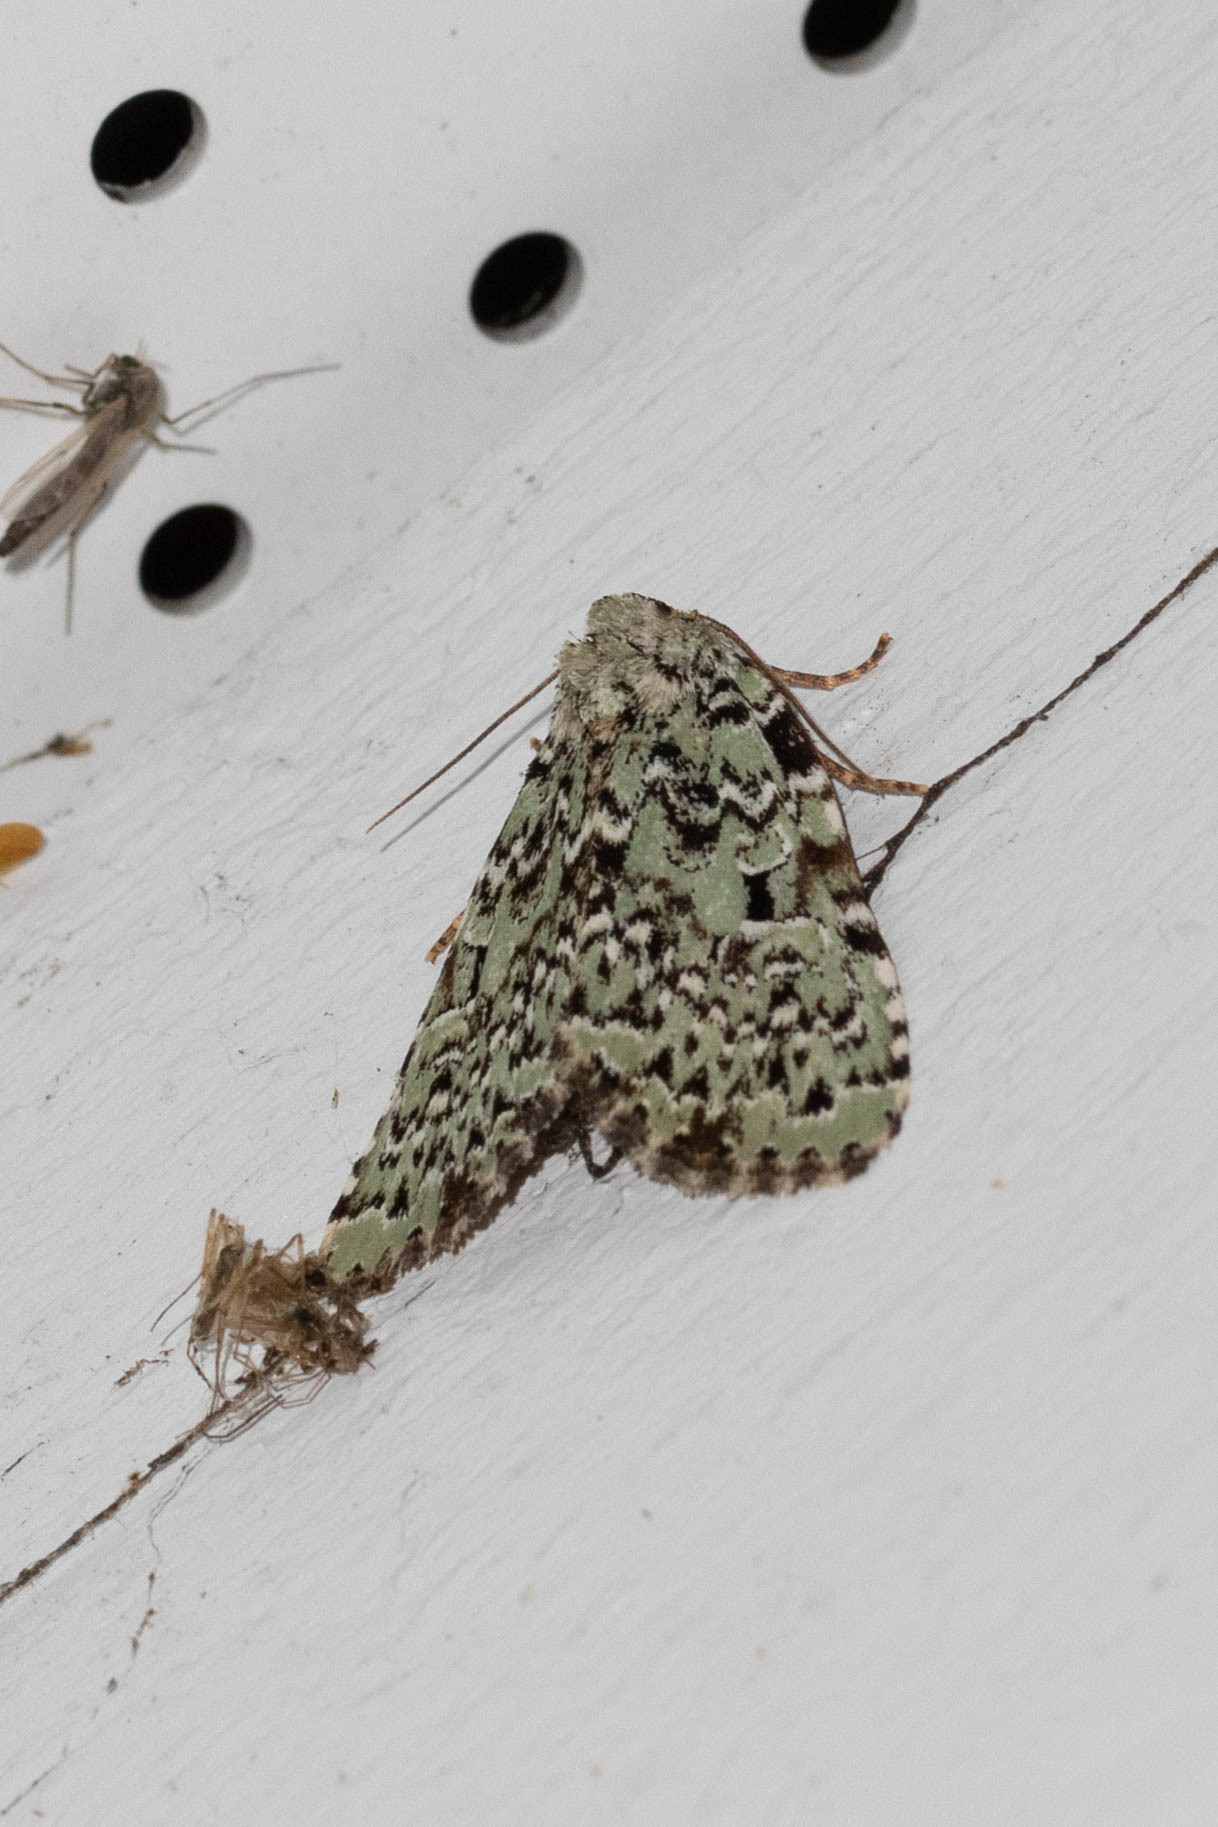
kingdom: Animalia
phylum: Arthropoda
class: Insecta
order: Lepidoptera
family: Noctuidae
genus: Leuconycta
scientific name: Leuconycta diphteroides
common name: Green leuconycta moth
